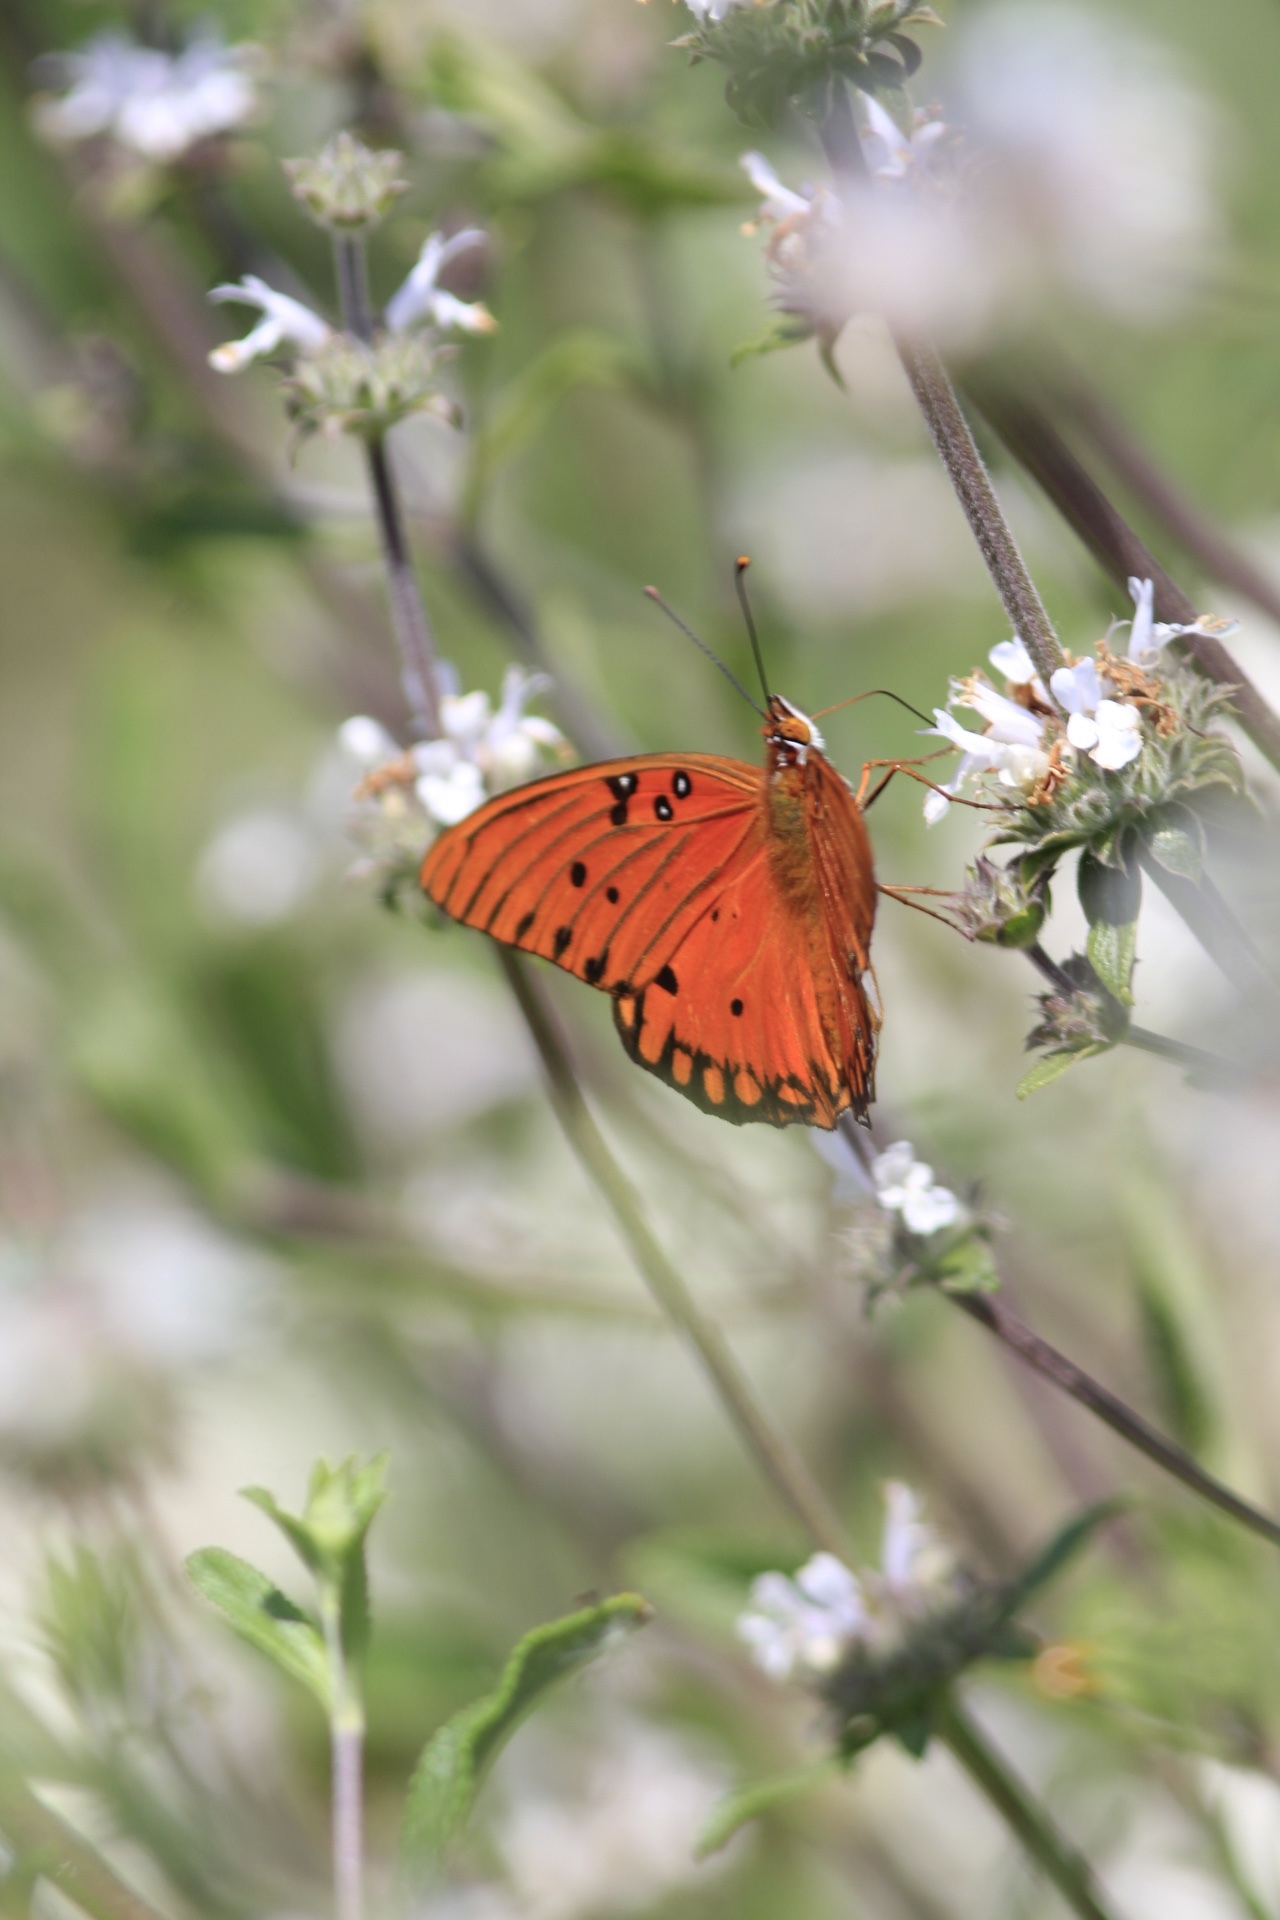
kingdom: Animalia
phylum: Arthropoda
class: Insecta
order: Lepidoptera
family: Nymphalidae
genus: Dione
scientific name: Dione vanillae
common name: Gulf fritillary
